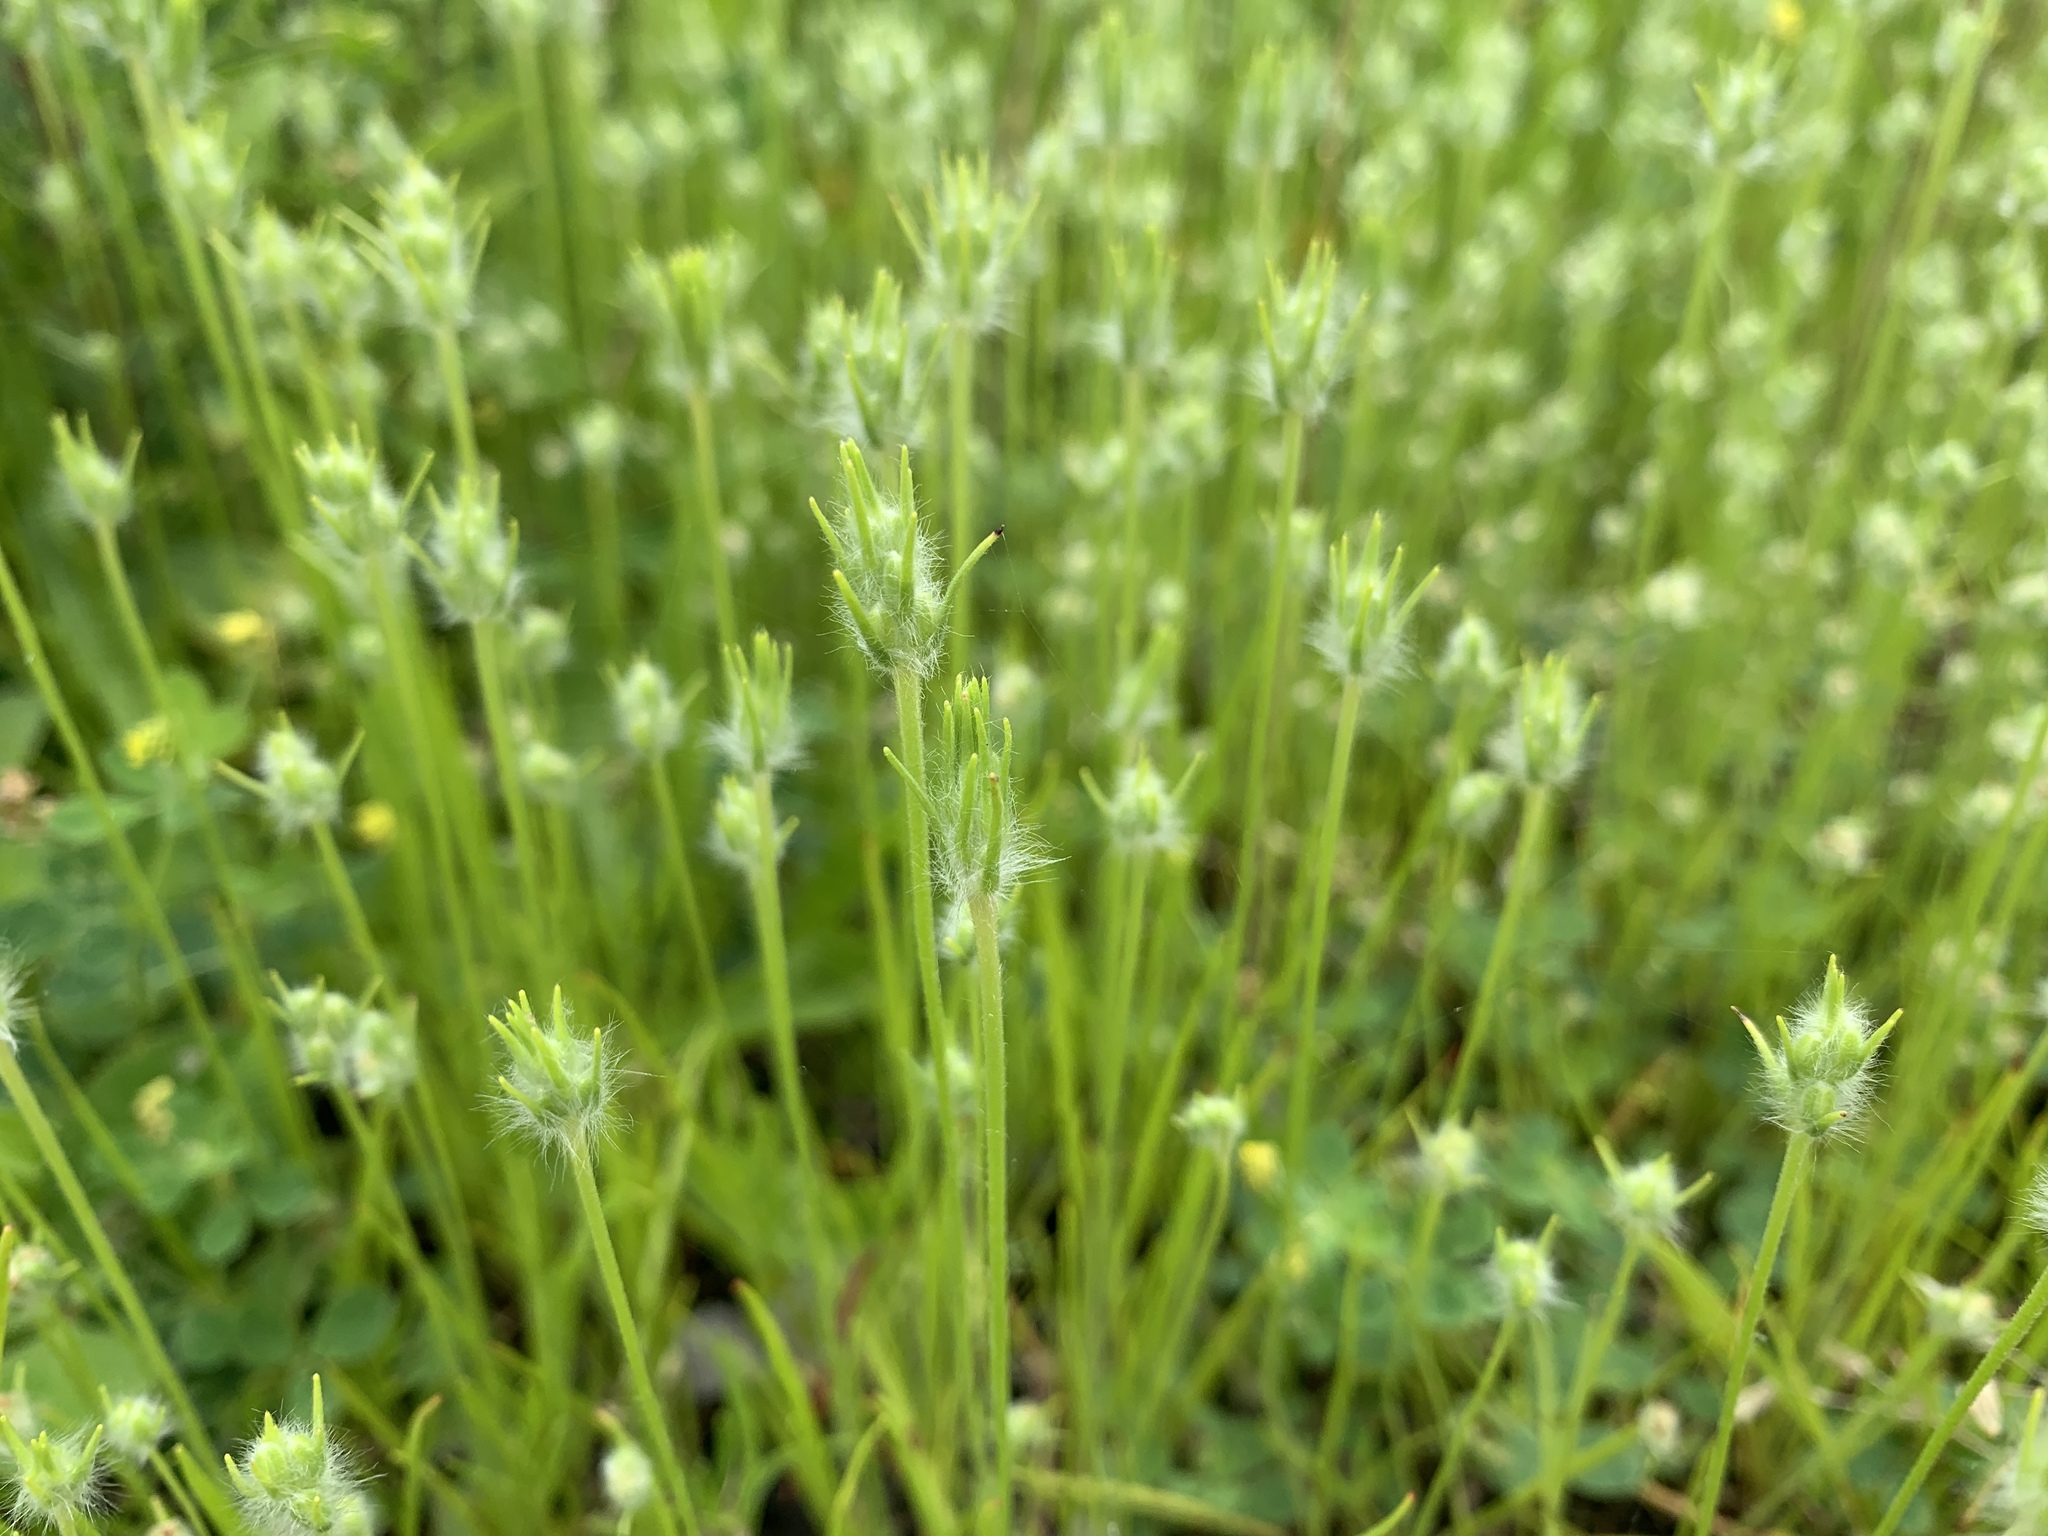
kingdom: Plantae
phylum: Tracheophyta
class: Magnoliopsida
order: Lamiales
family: Plantaginaceae
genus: Plantago
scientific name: Plantago aristata
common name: Bracted plantain
